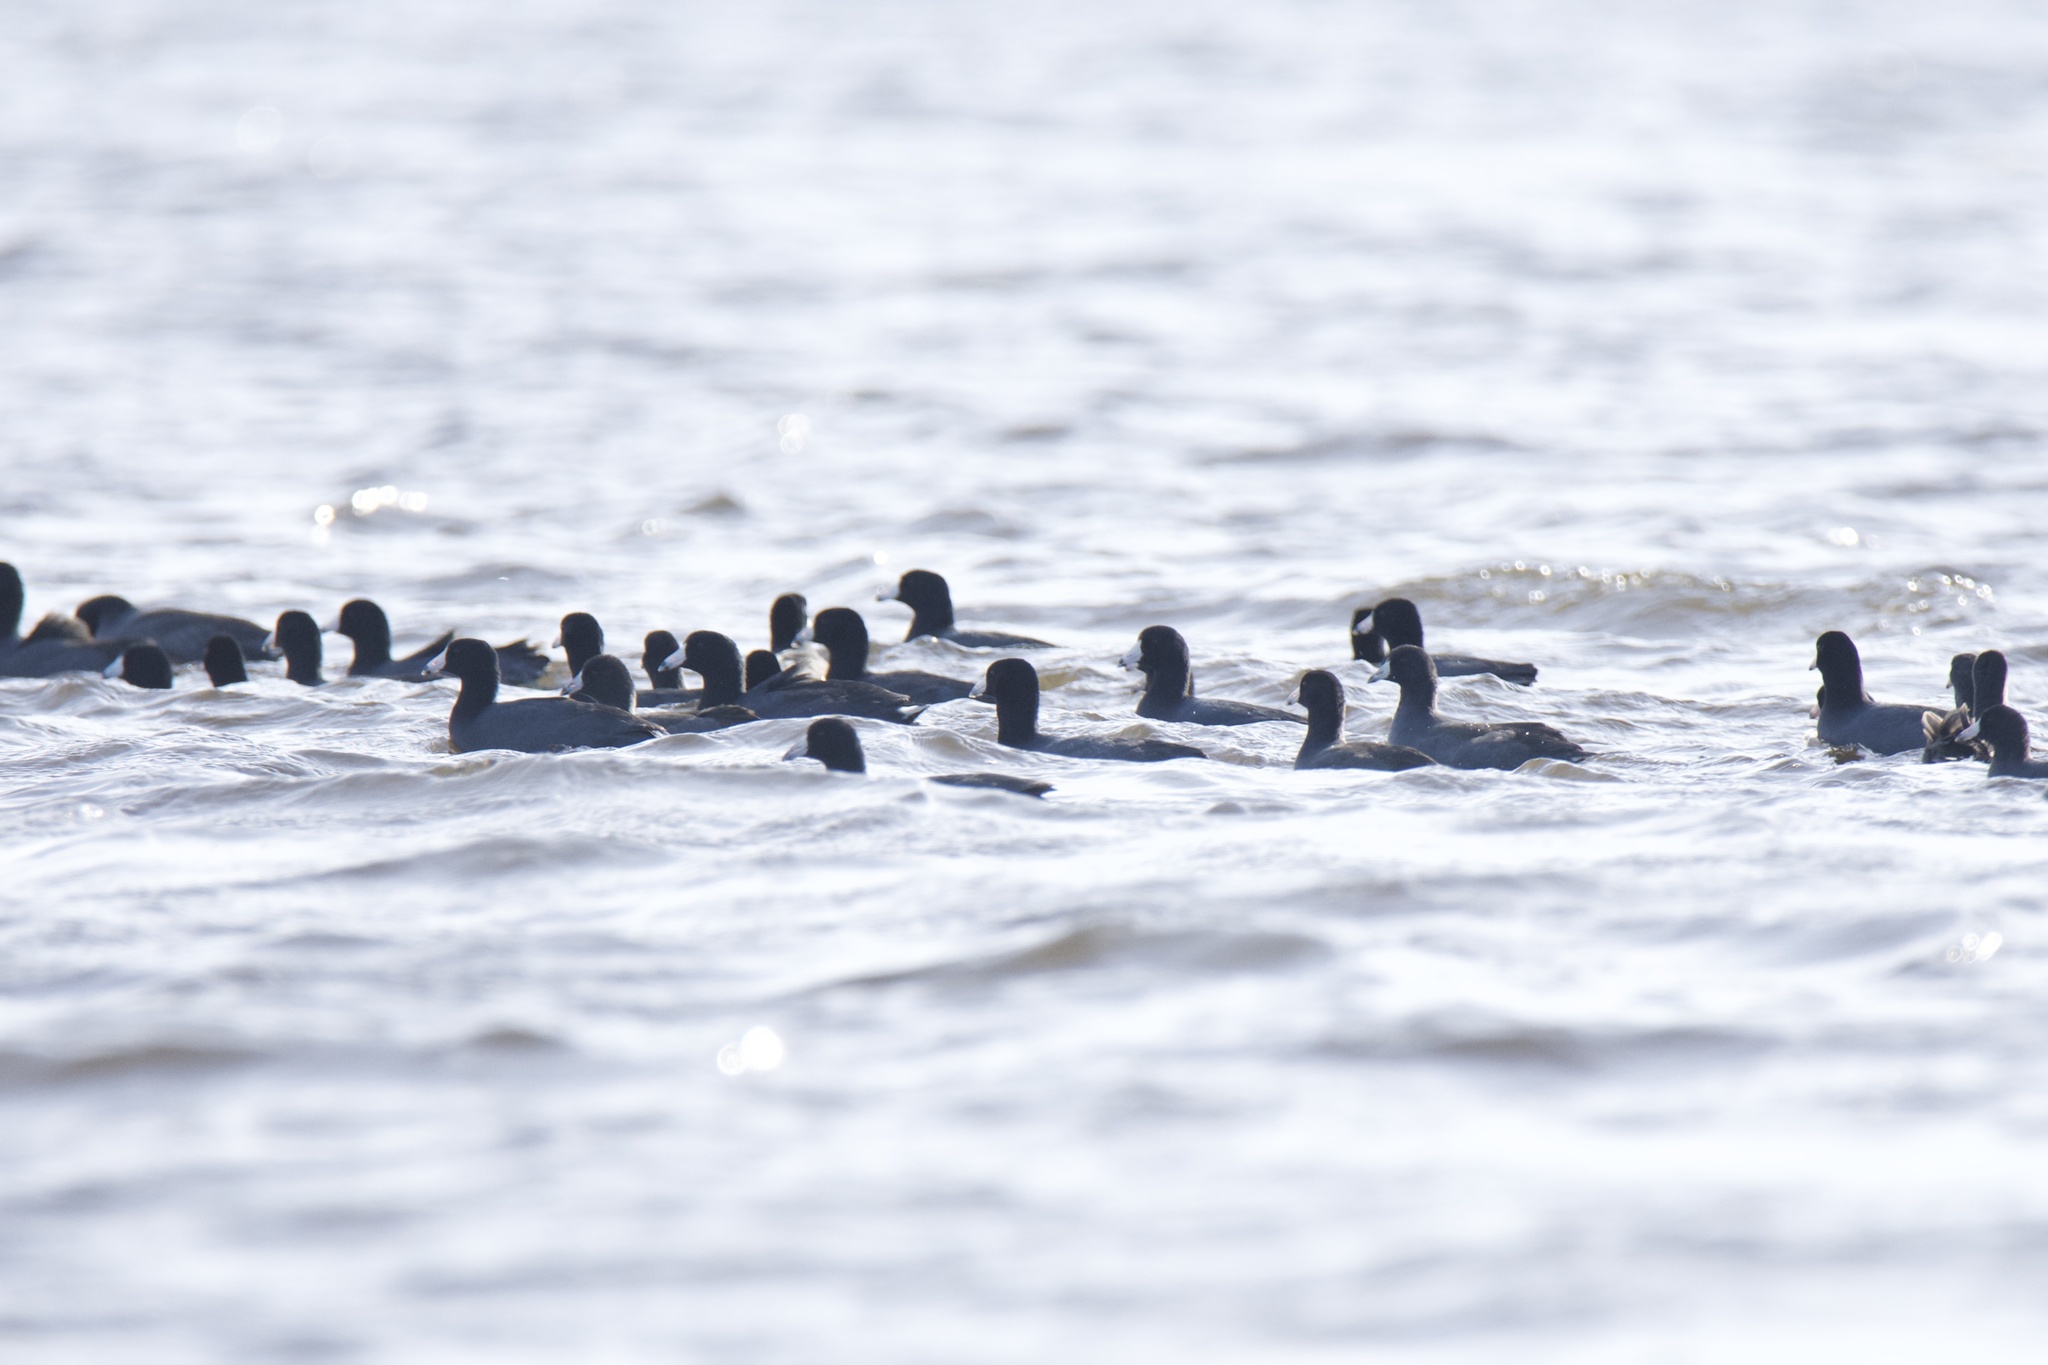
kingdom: Animalia
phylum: Chordata
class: Aves
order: Gruiformes
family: Rallidae
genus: Fulica
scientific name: Fulica americana
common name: American coot
